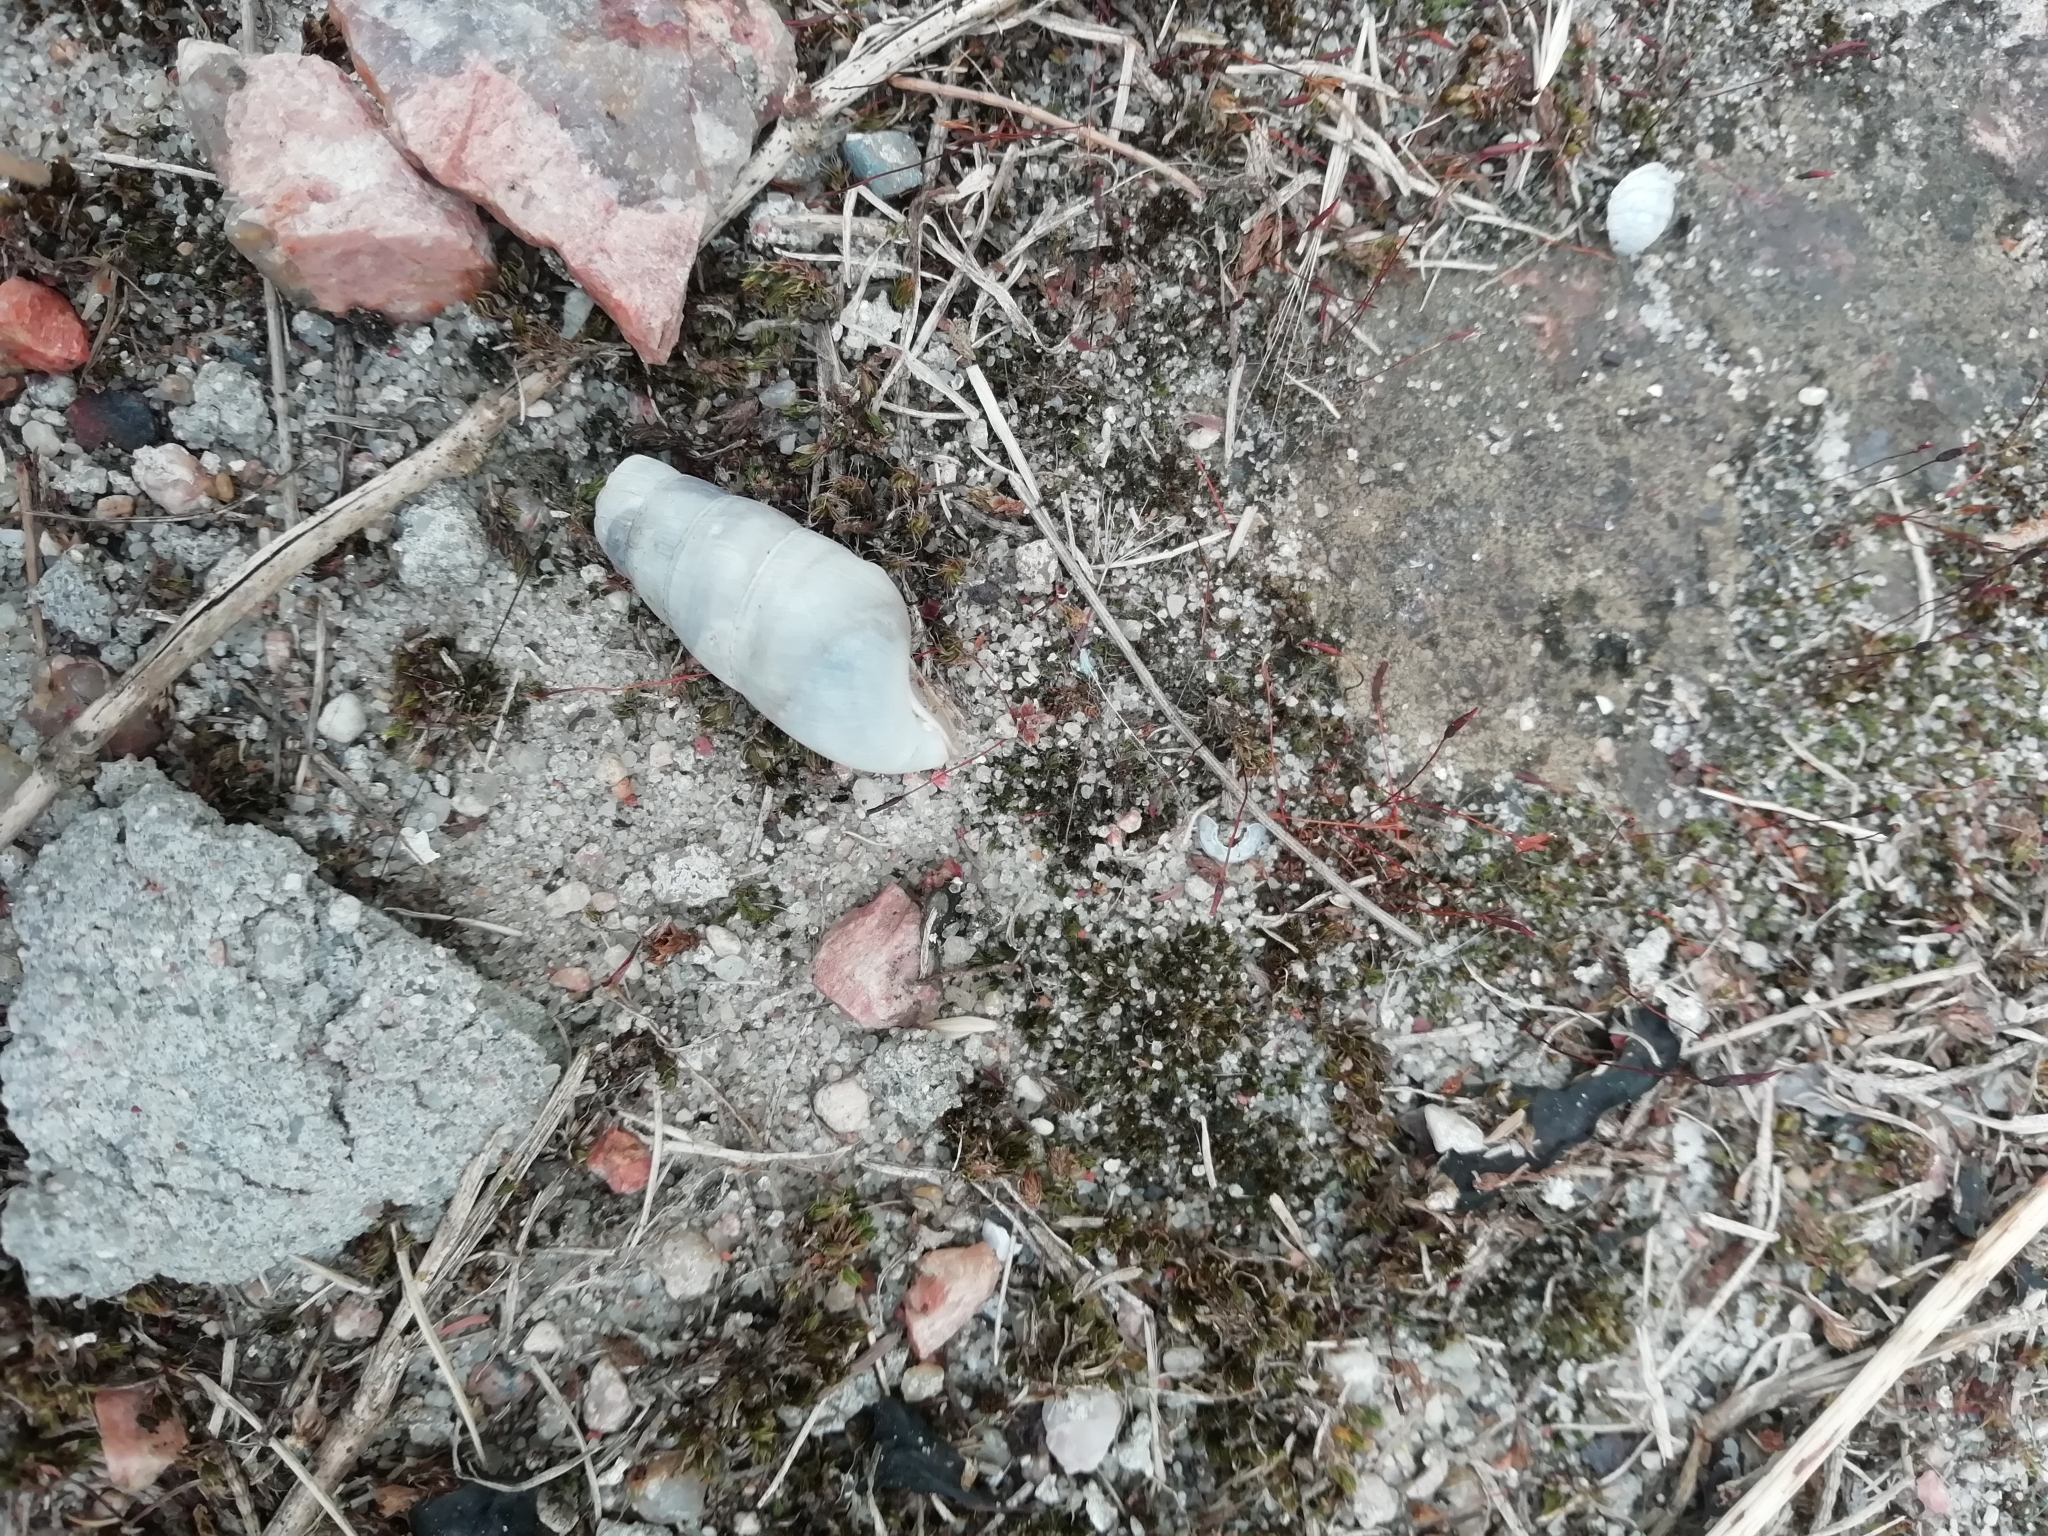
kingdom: Animalia
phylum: Mollusca
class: Gastropoda
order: Stylommatophora
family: Achatinidae
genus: Rumina
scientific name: Rumina decollata
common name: Decollate snail
